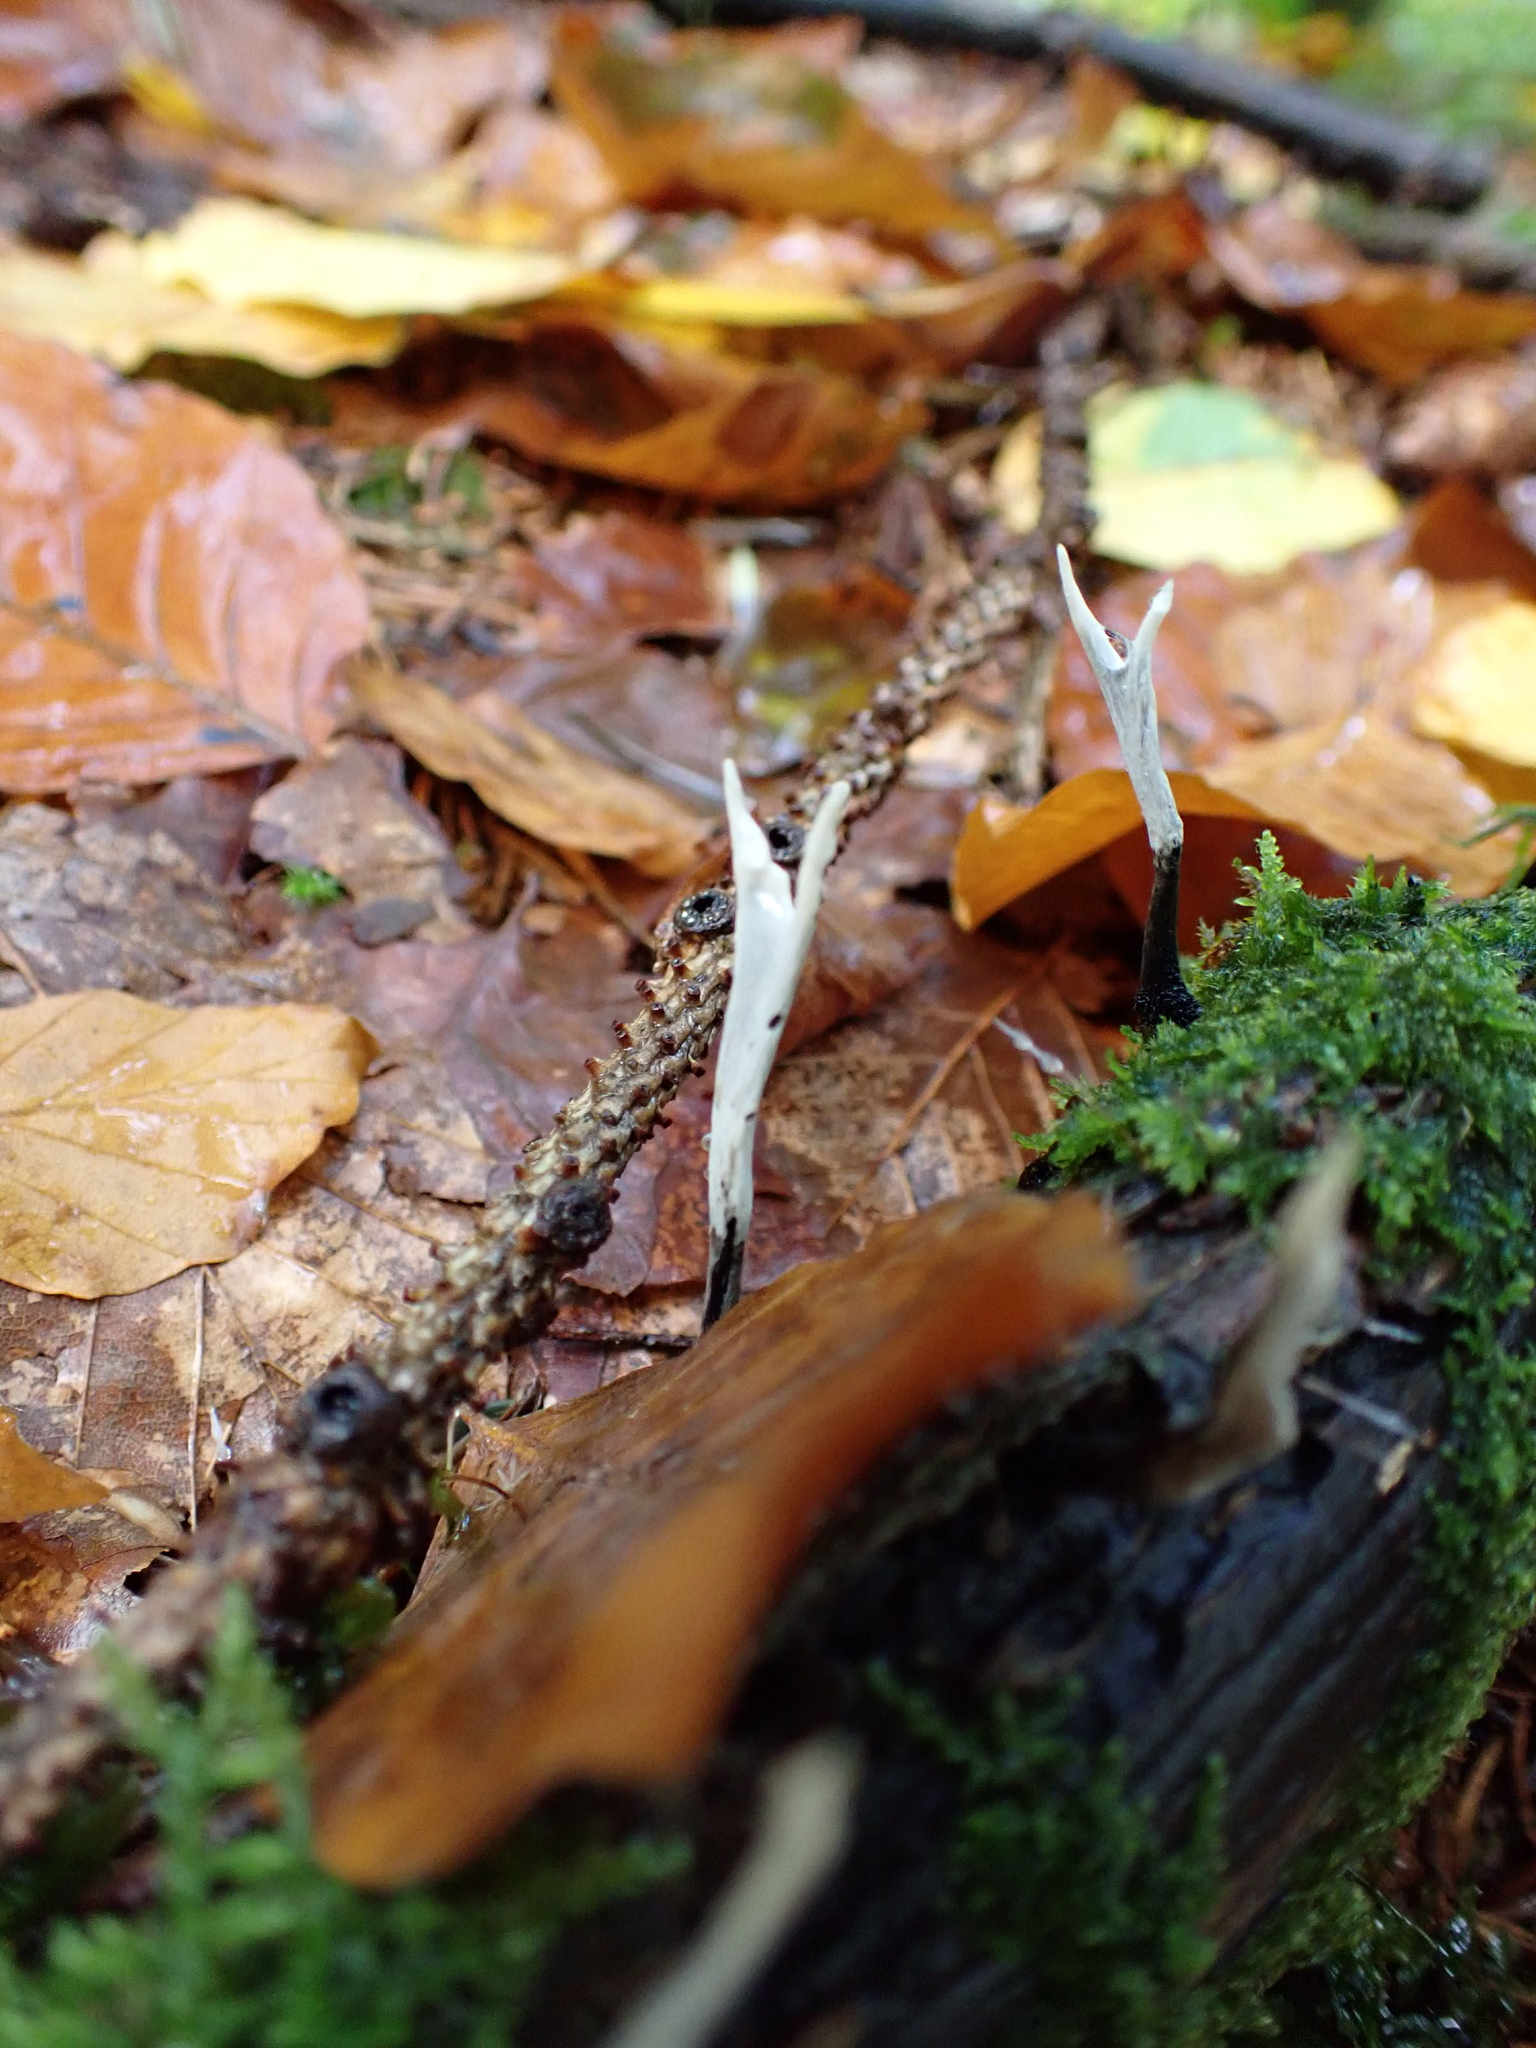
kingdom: Fungi
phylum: Ascomycota
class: Sordariomycetes
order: Xylariales
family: Xylariaceae
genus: Xylaria
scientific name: Xylaria hypoxylon
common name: Candle-snuff fungus
